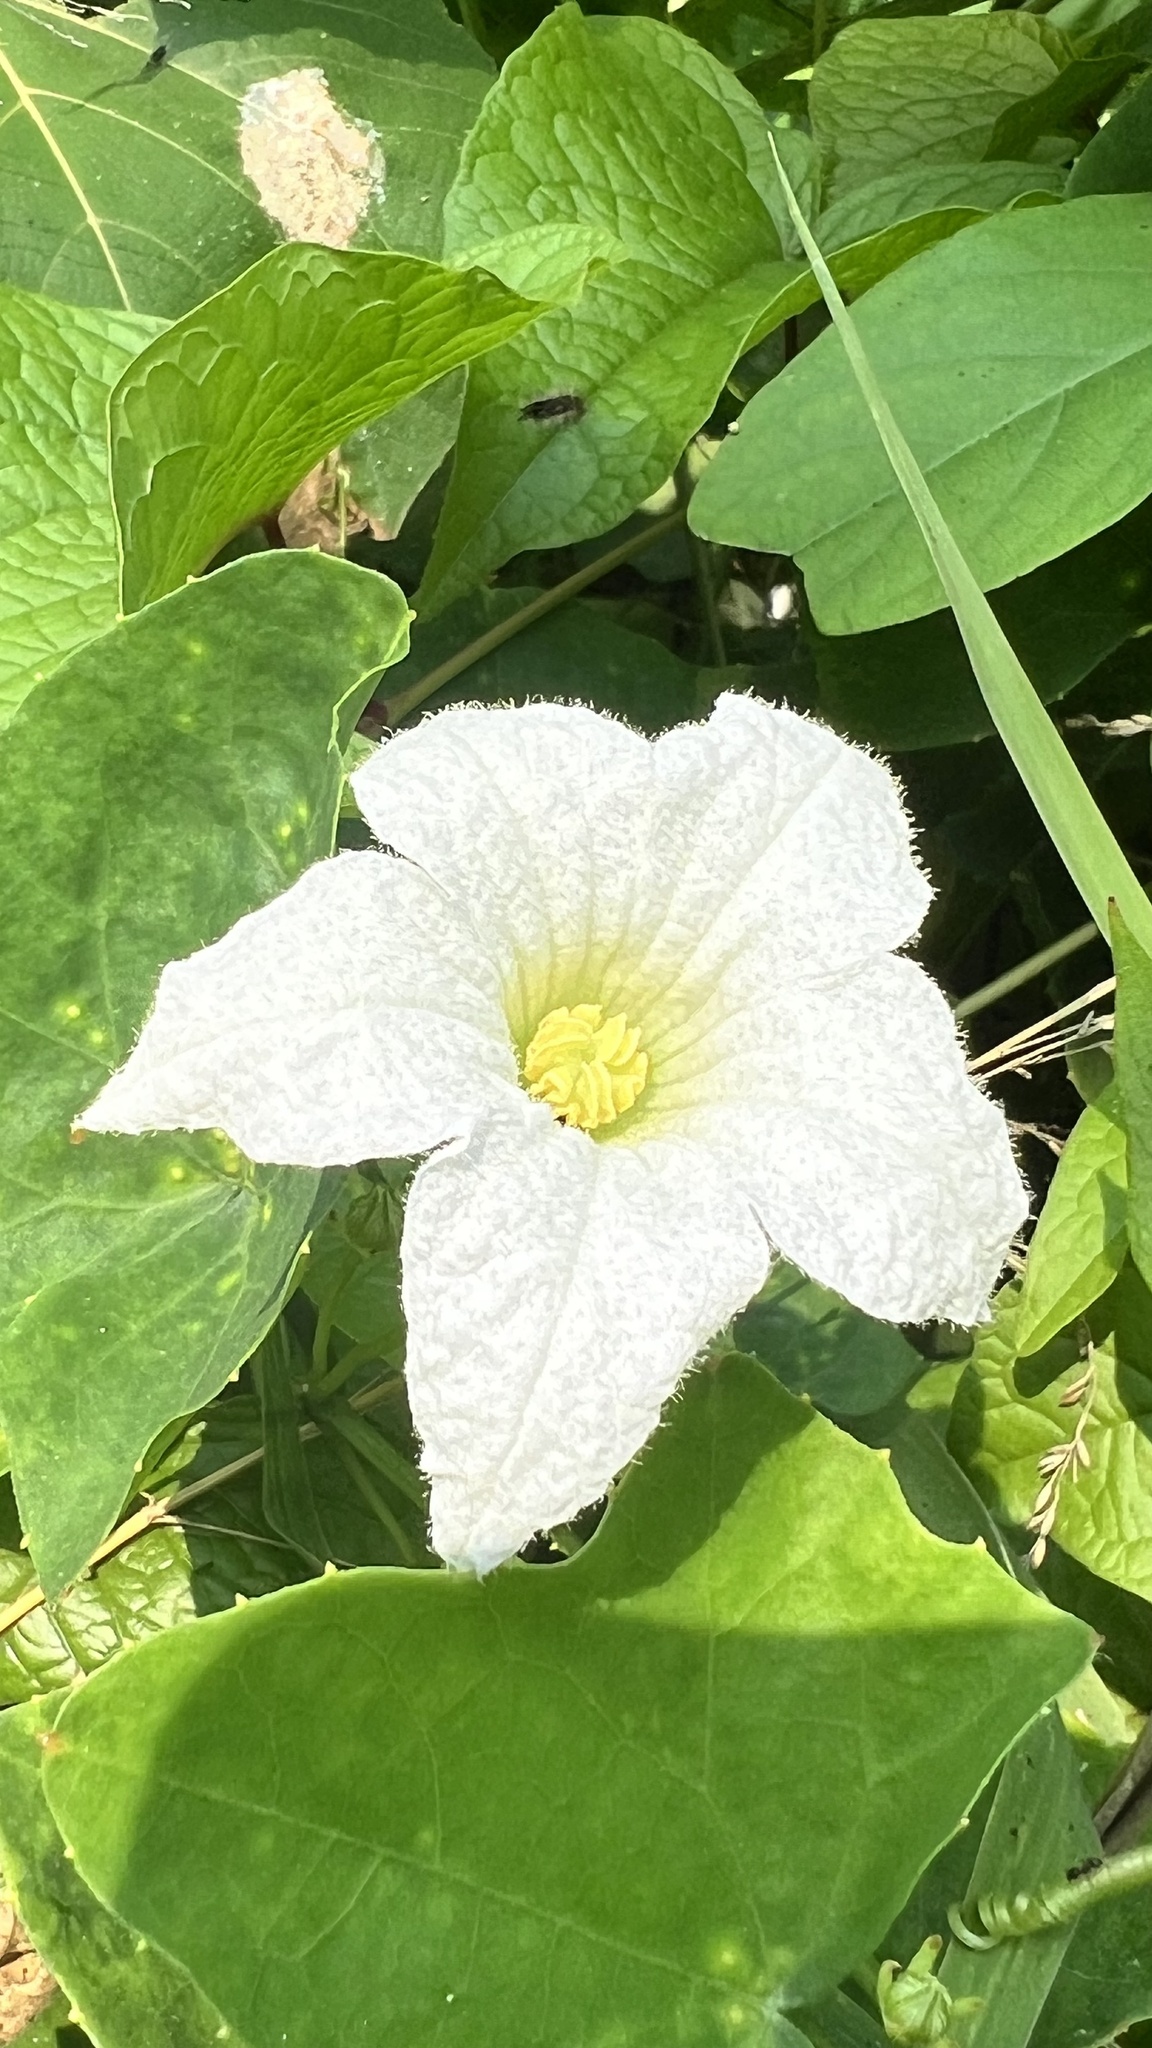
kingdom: Plantae
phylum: Tracheophyta
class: Magnoliopsida
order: Cucurbitales
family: Cucurbitaceae
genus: Coccinia
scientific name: Coccinia grandis
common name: Ivy gourd
